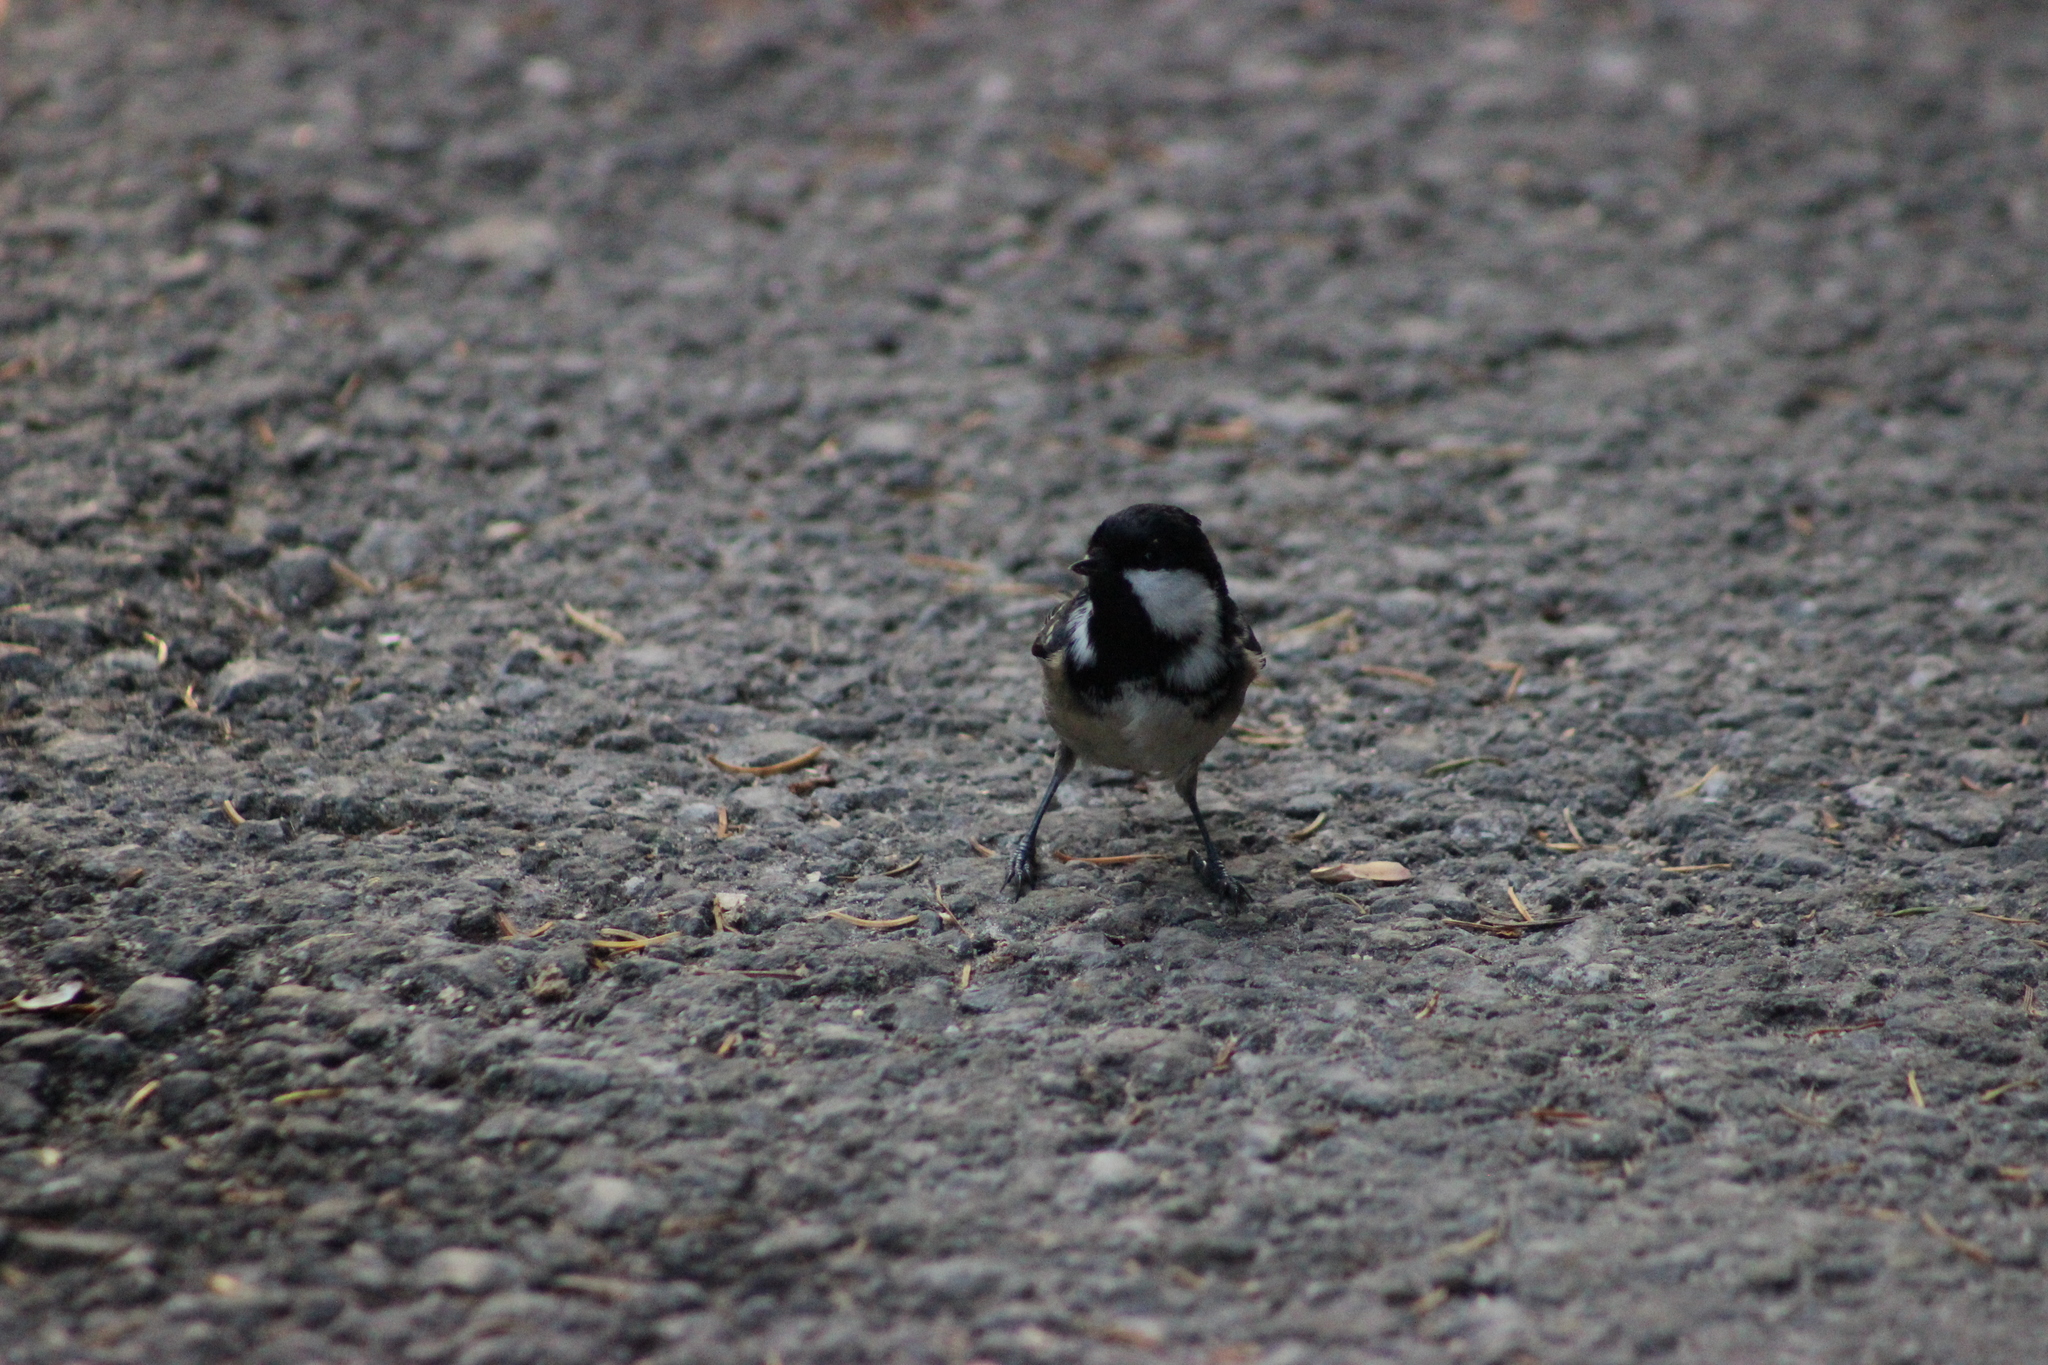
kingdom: Animalia
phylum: Chordata
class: Aves
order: Passeriformes
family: Paridae
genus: Periparus
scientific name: Periparus ater
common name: Coal tit
